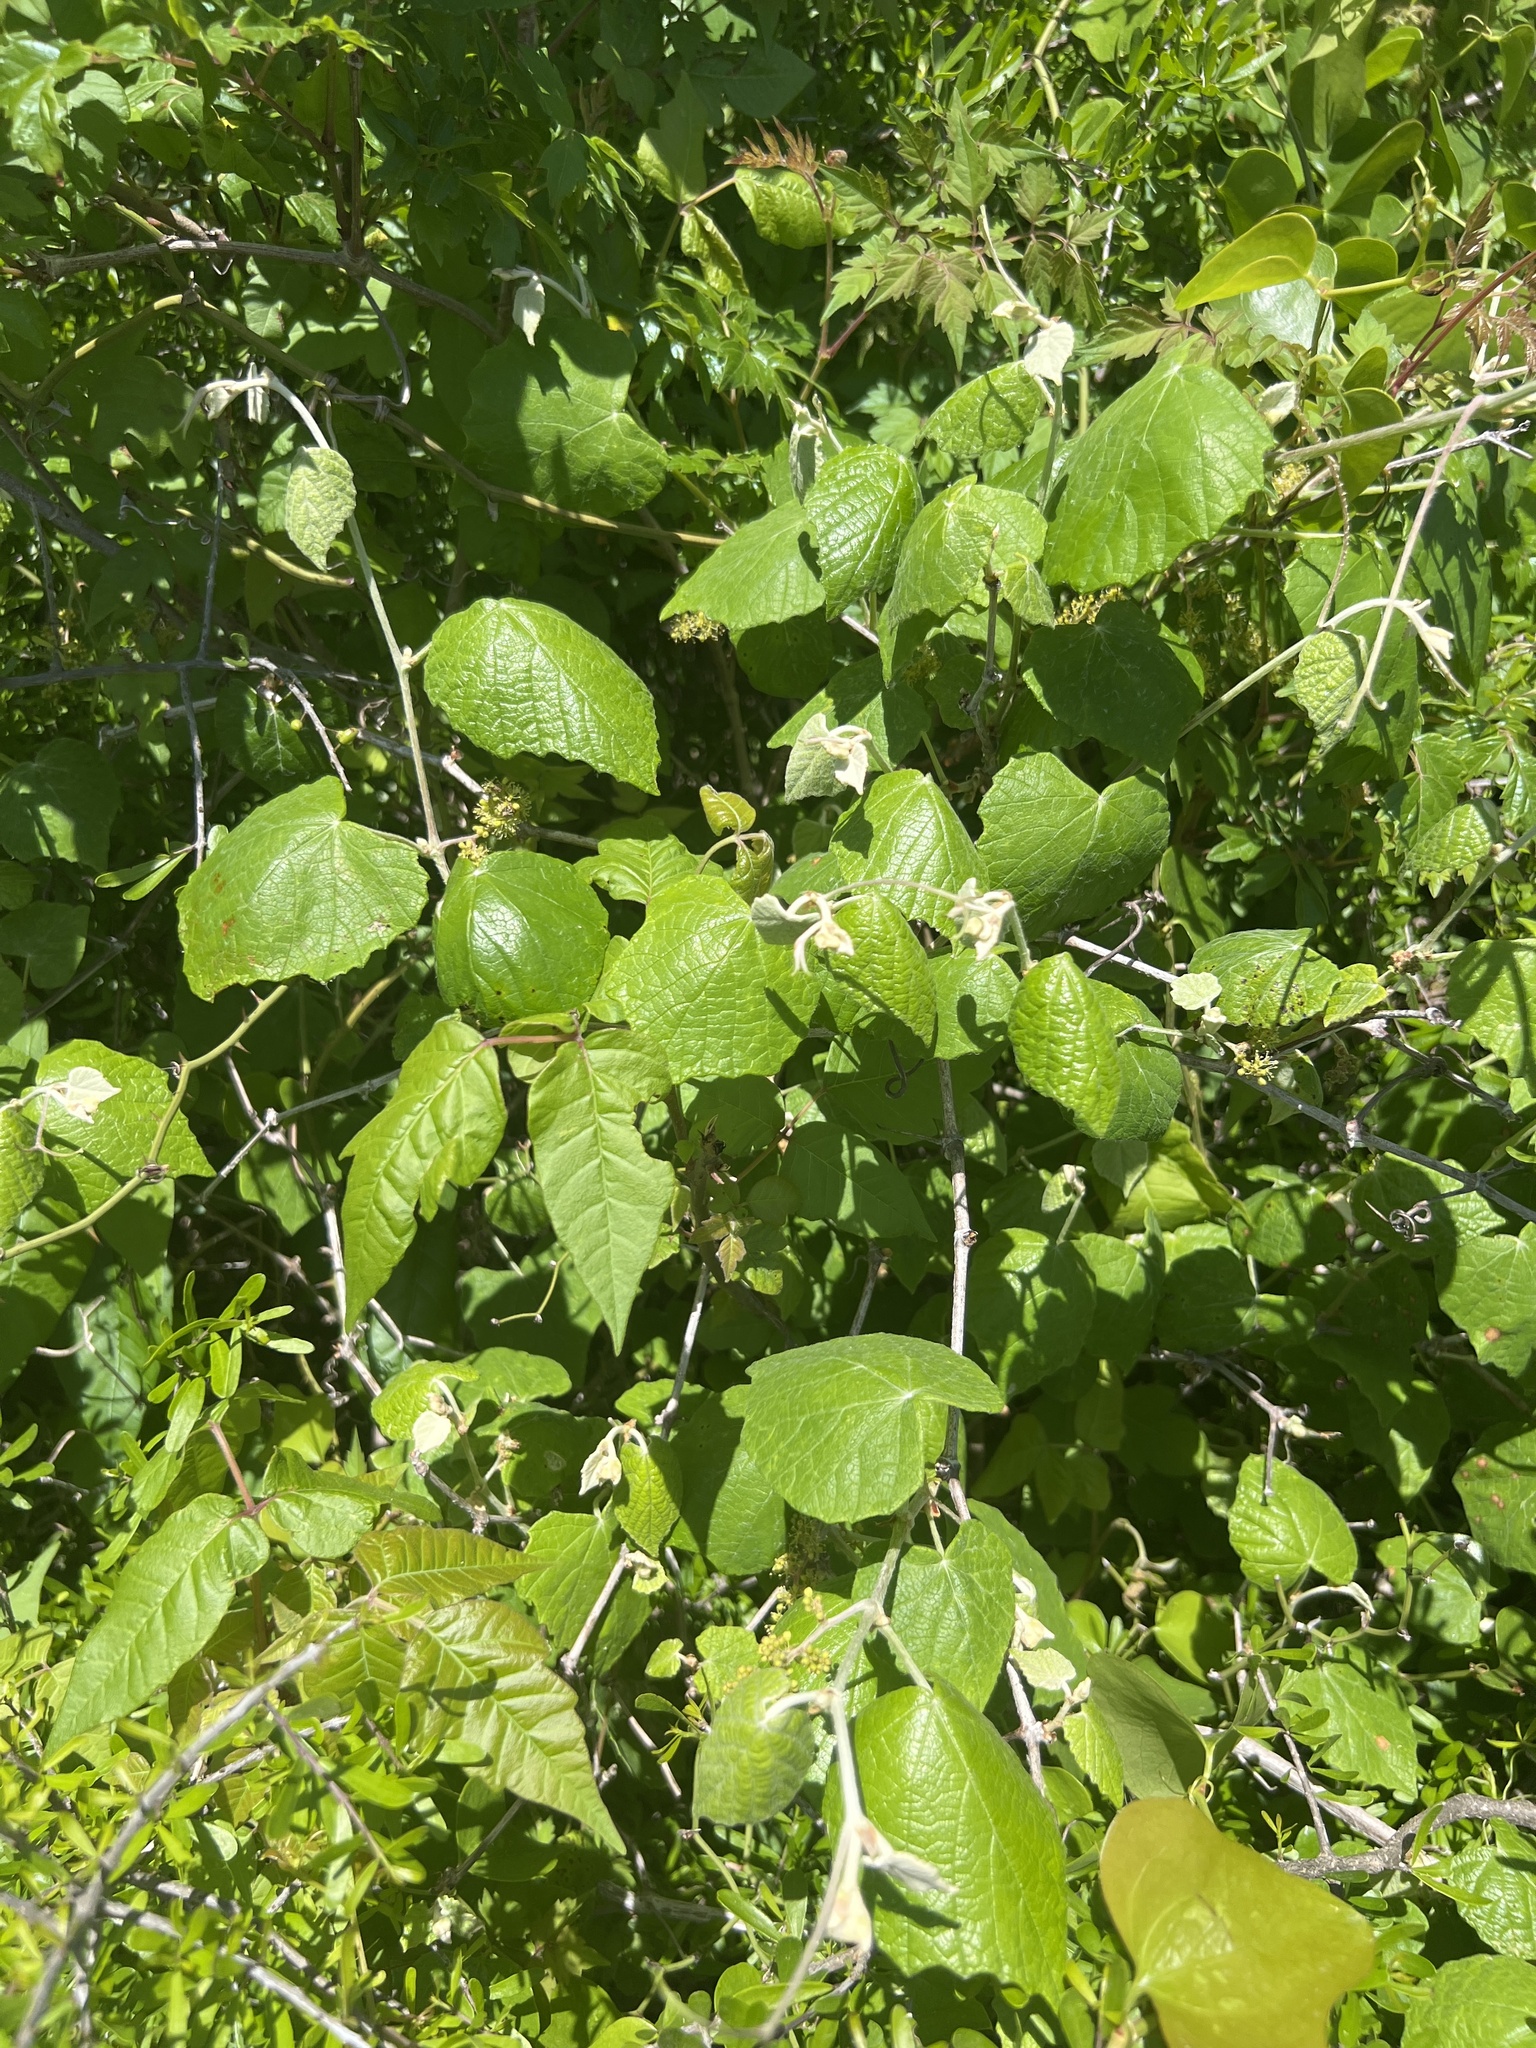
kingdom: Plantae
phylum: Tracheophyta
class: Magnoliopsida
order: Vitales
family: Vitaceae
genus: Vitis
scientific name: Vitis mustangensis
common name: Mustang grape
